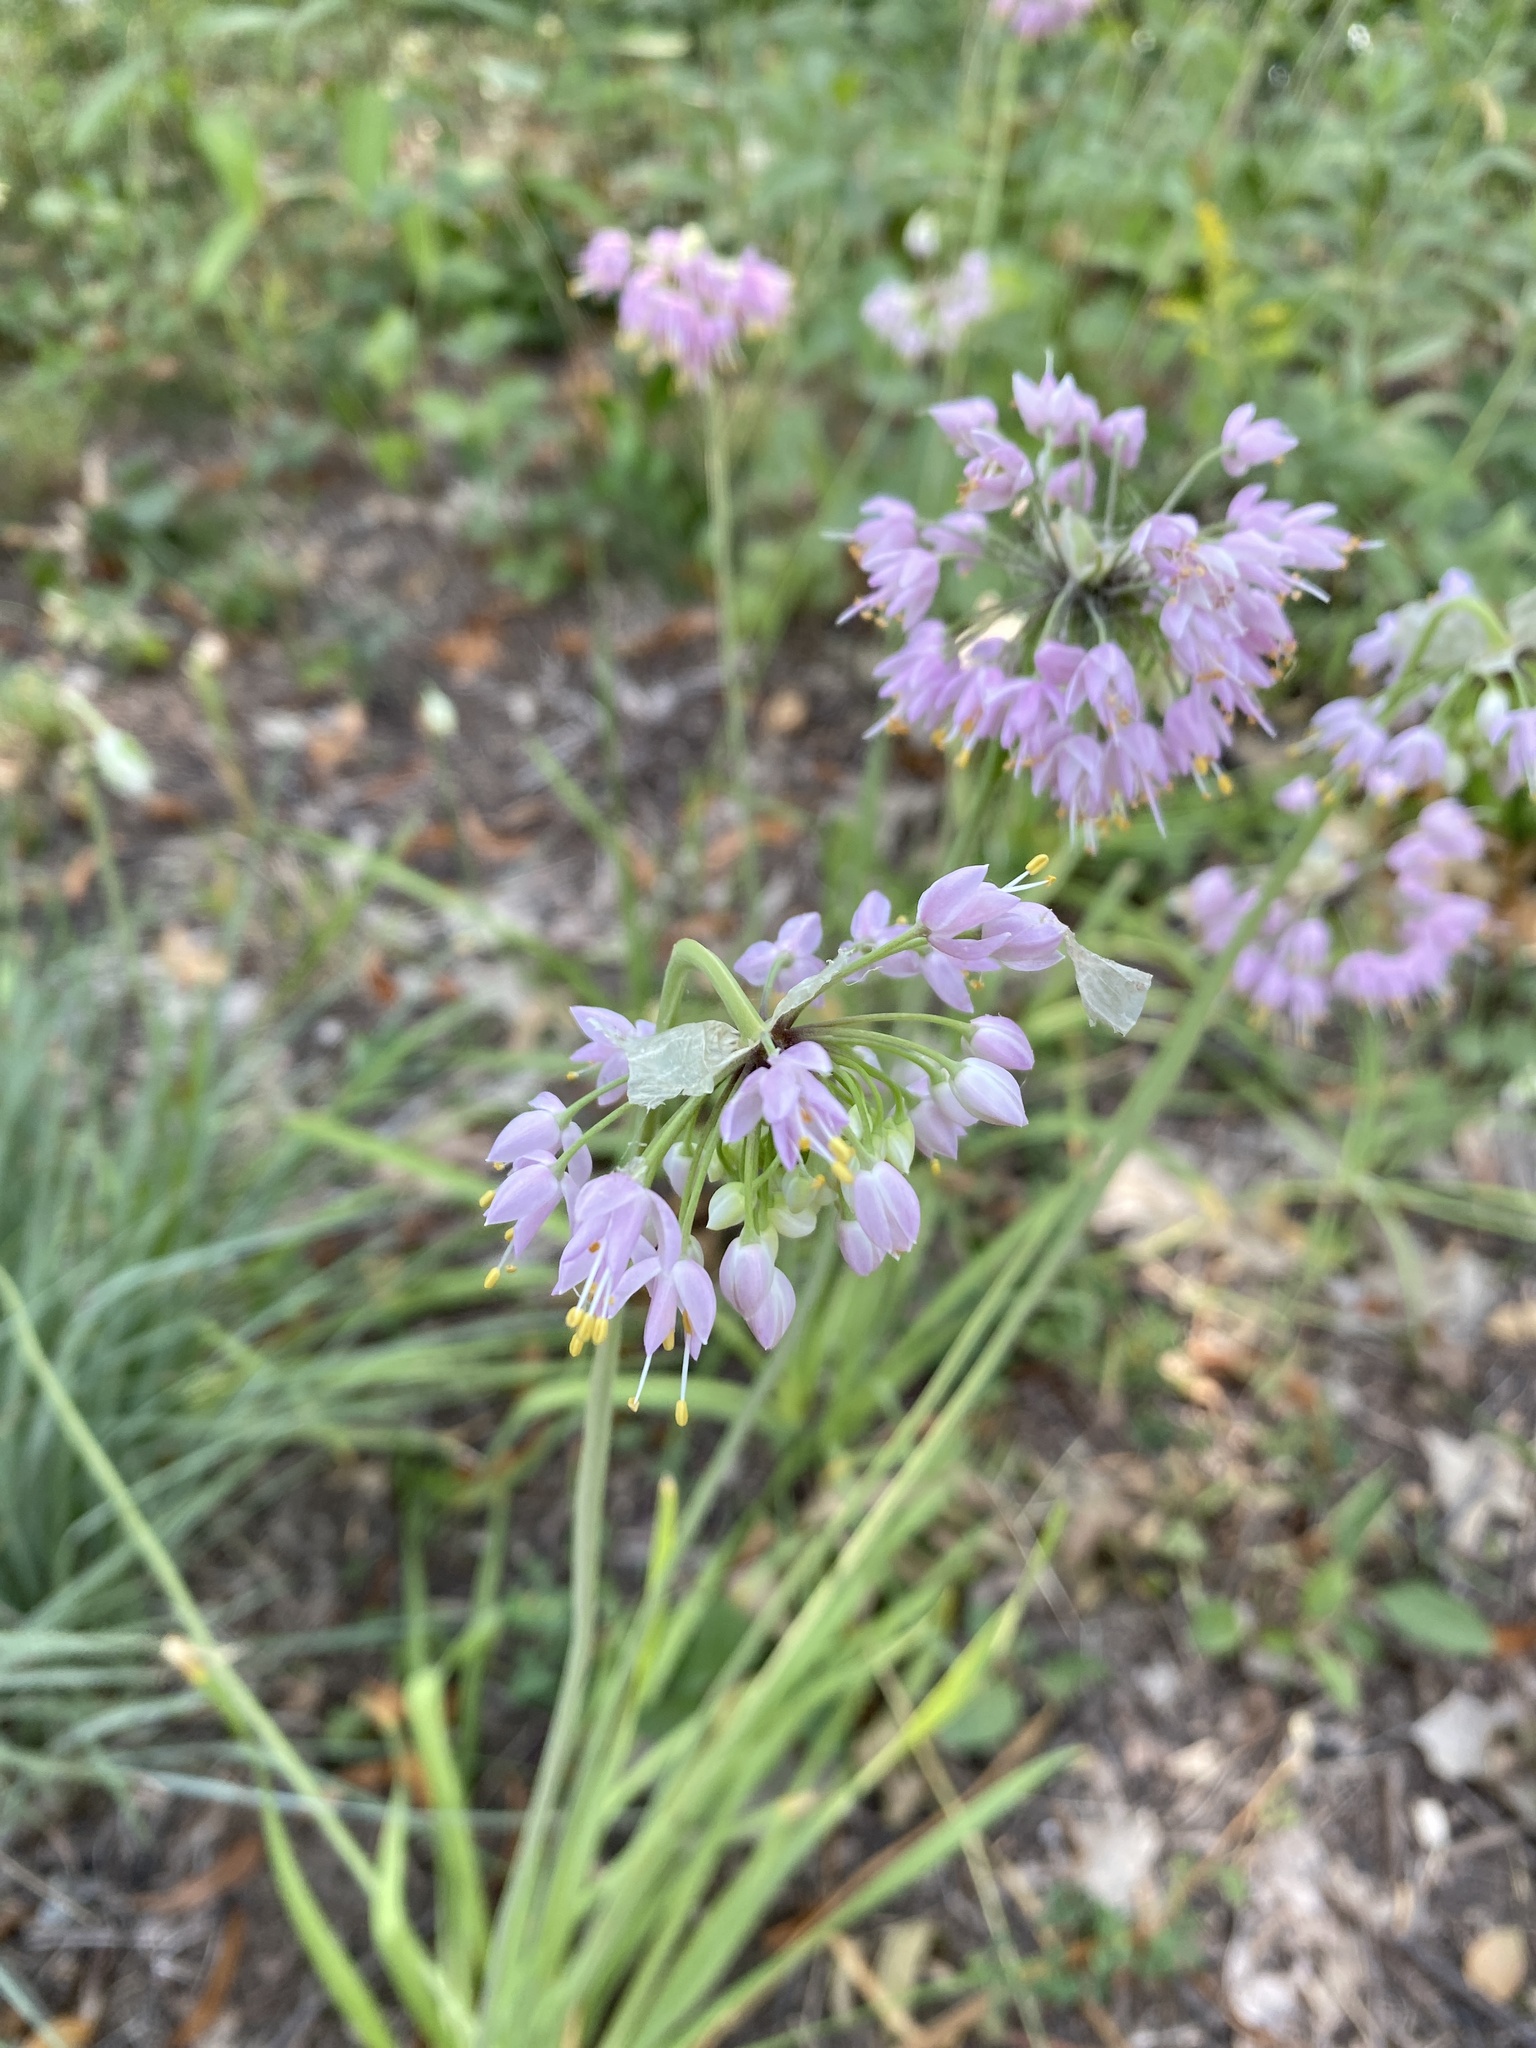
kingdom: Plantae
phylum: Tracheophyta
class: Liliopsida
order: Asparagales
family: Amaryllidaceae
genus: Allium
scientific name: Allium cernuum
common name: Nodding onion
